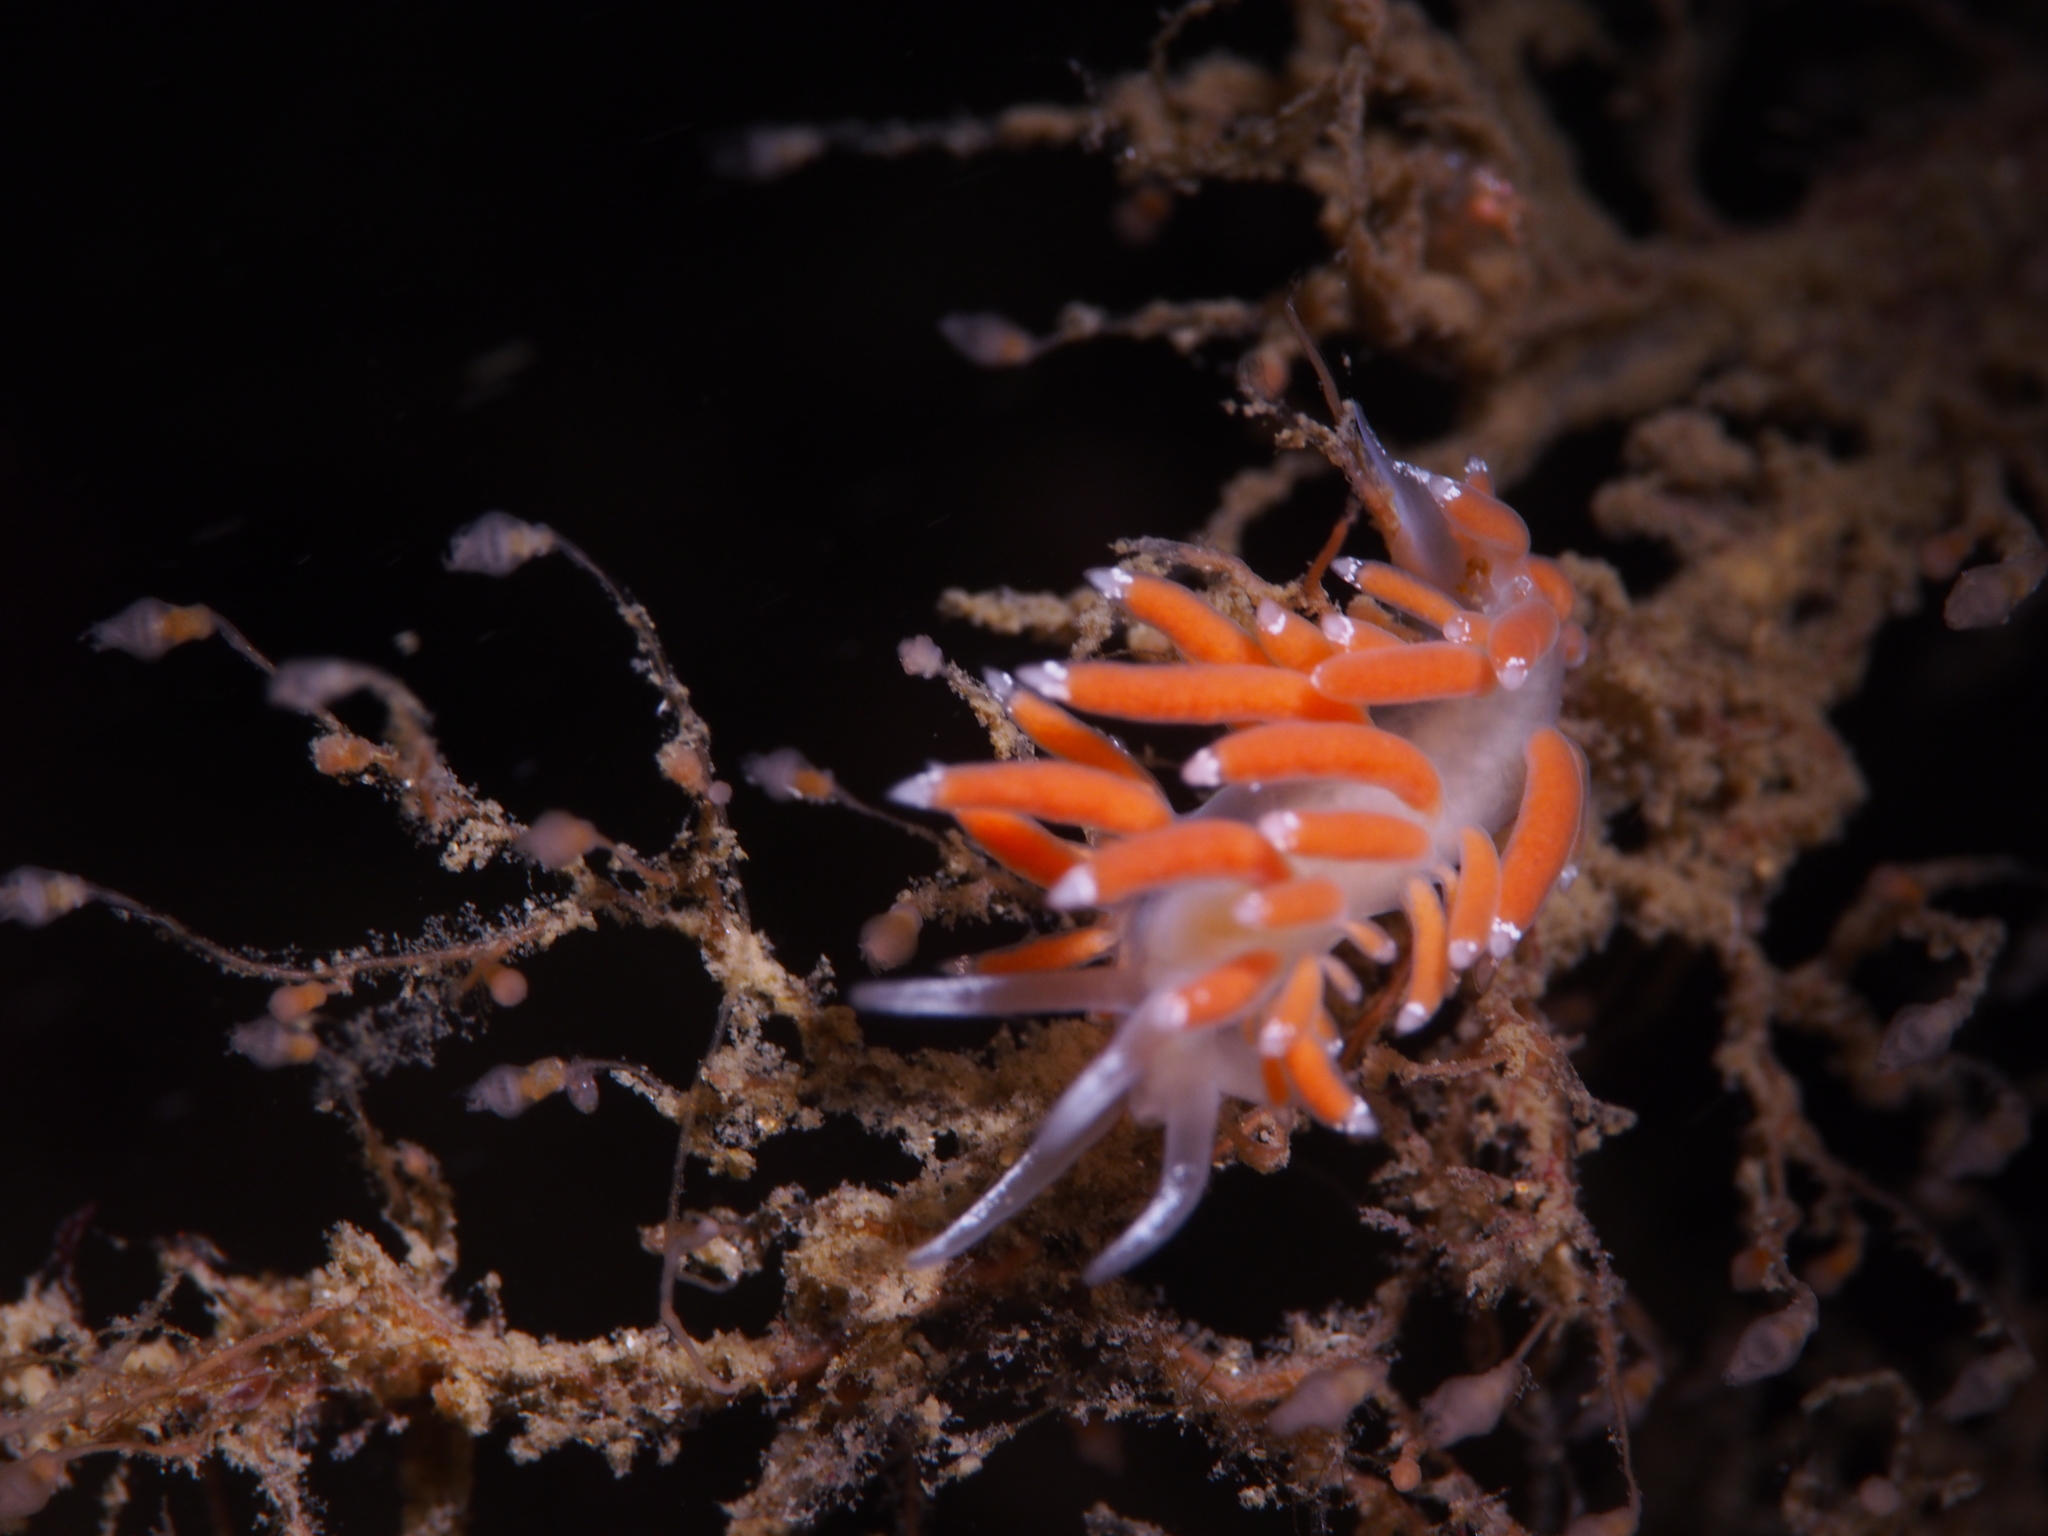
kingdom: Animalia
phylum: Mollusca
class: Gastropoda
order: Nudibranchia
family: Coryphellidae
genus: Coryphella
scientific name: Coryphella gracilis
